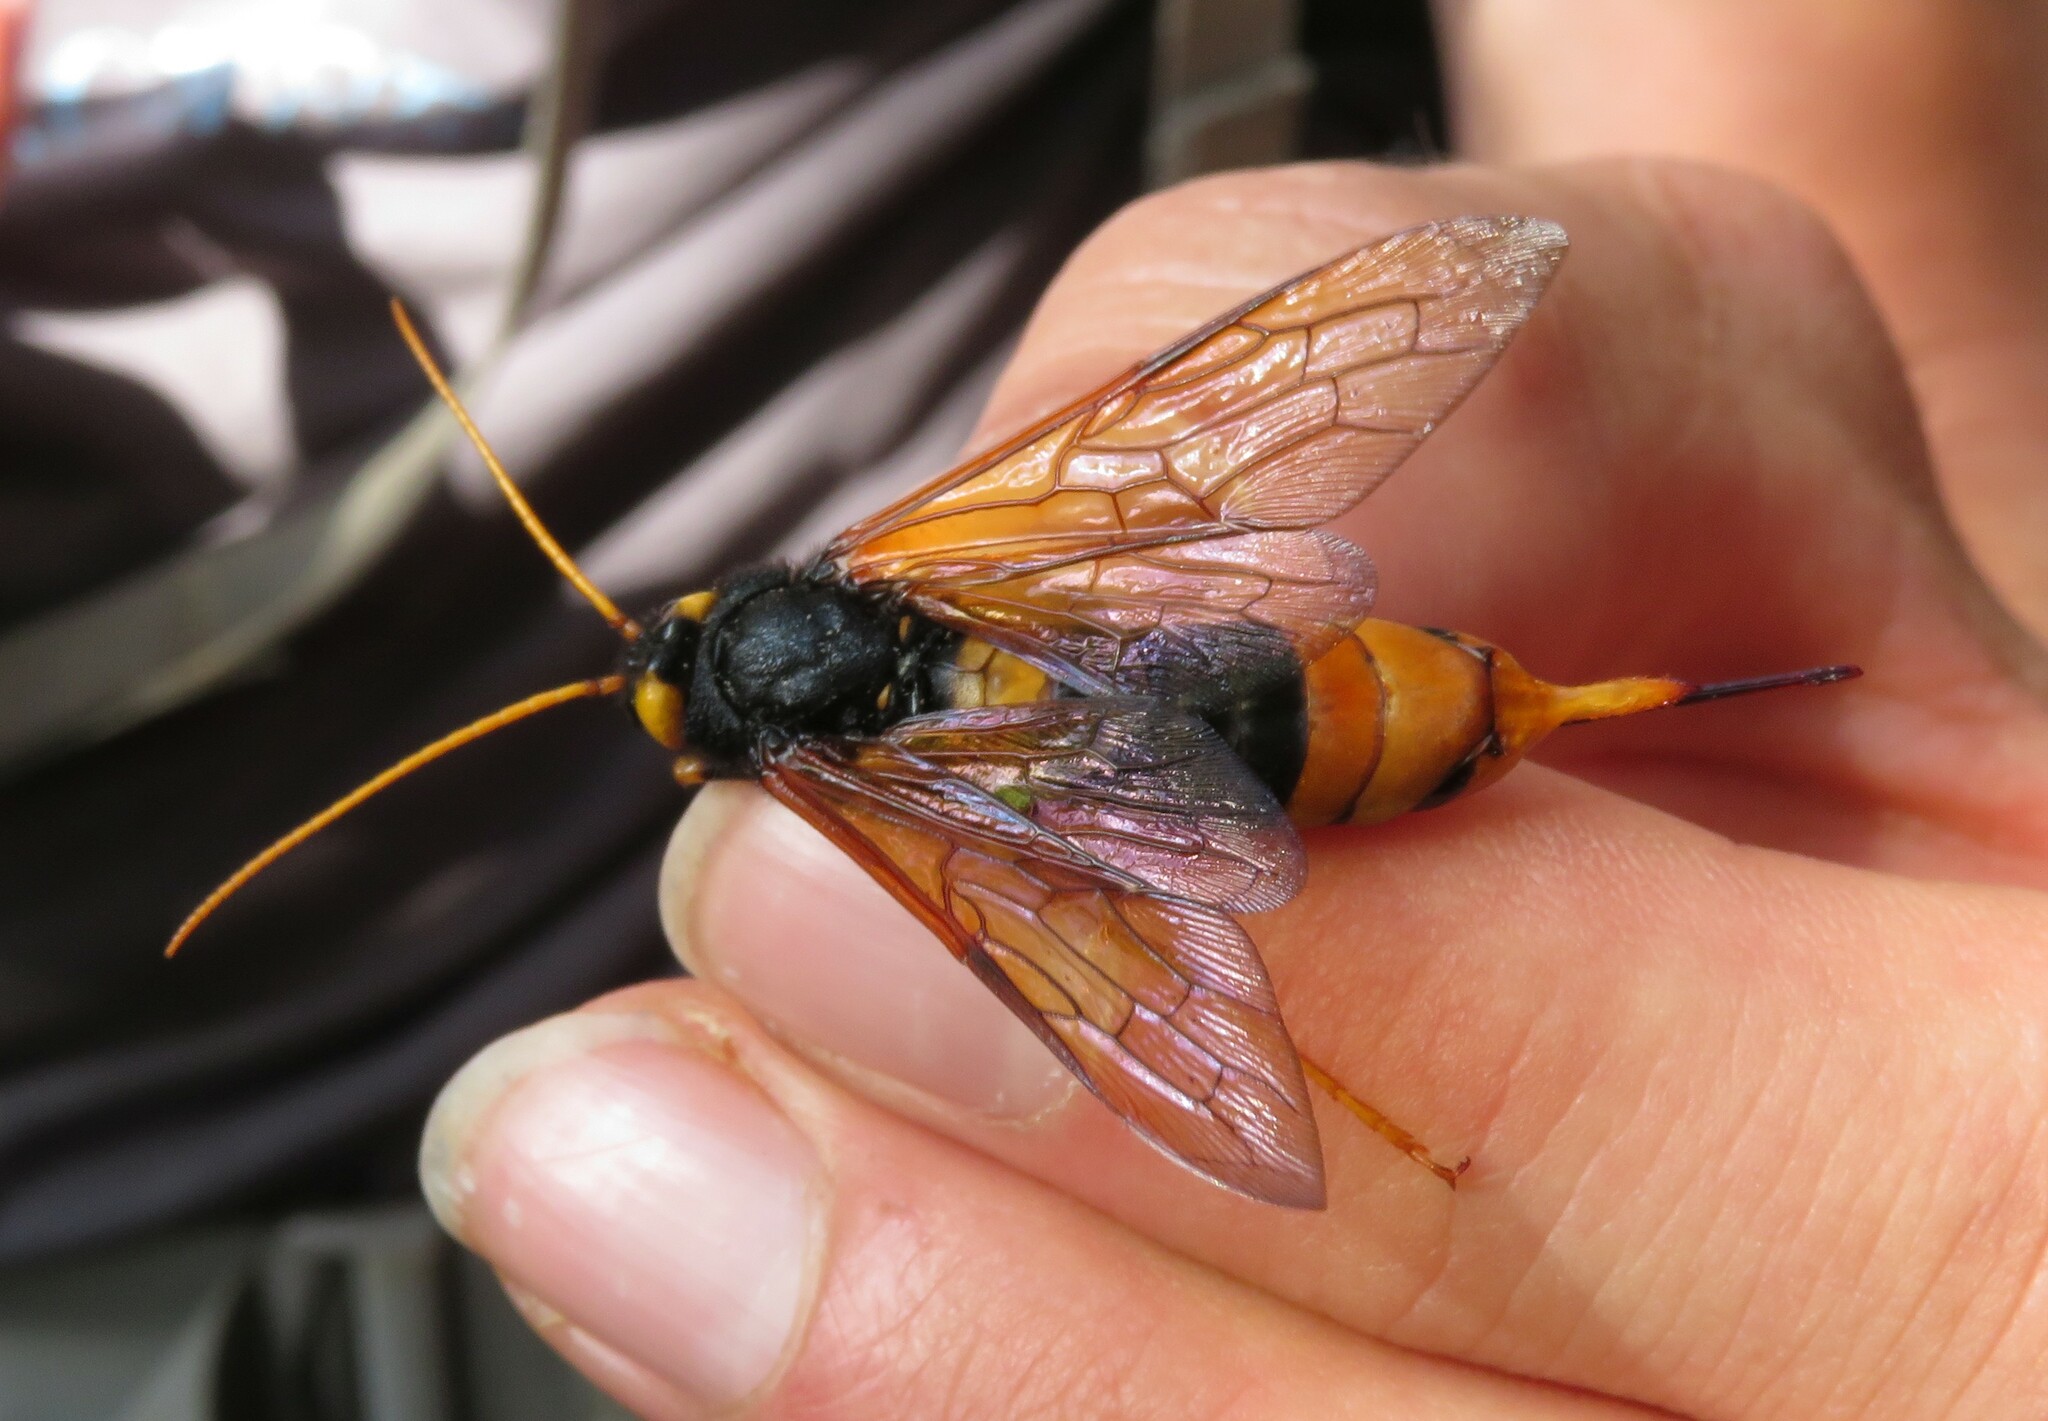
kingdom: Animalia
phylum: Arthropoda
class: Insecta
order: Hymenoptera
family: Siricidae
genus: Urocerus
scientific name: Urocerus gigas
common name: Giant woodwasp
